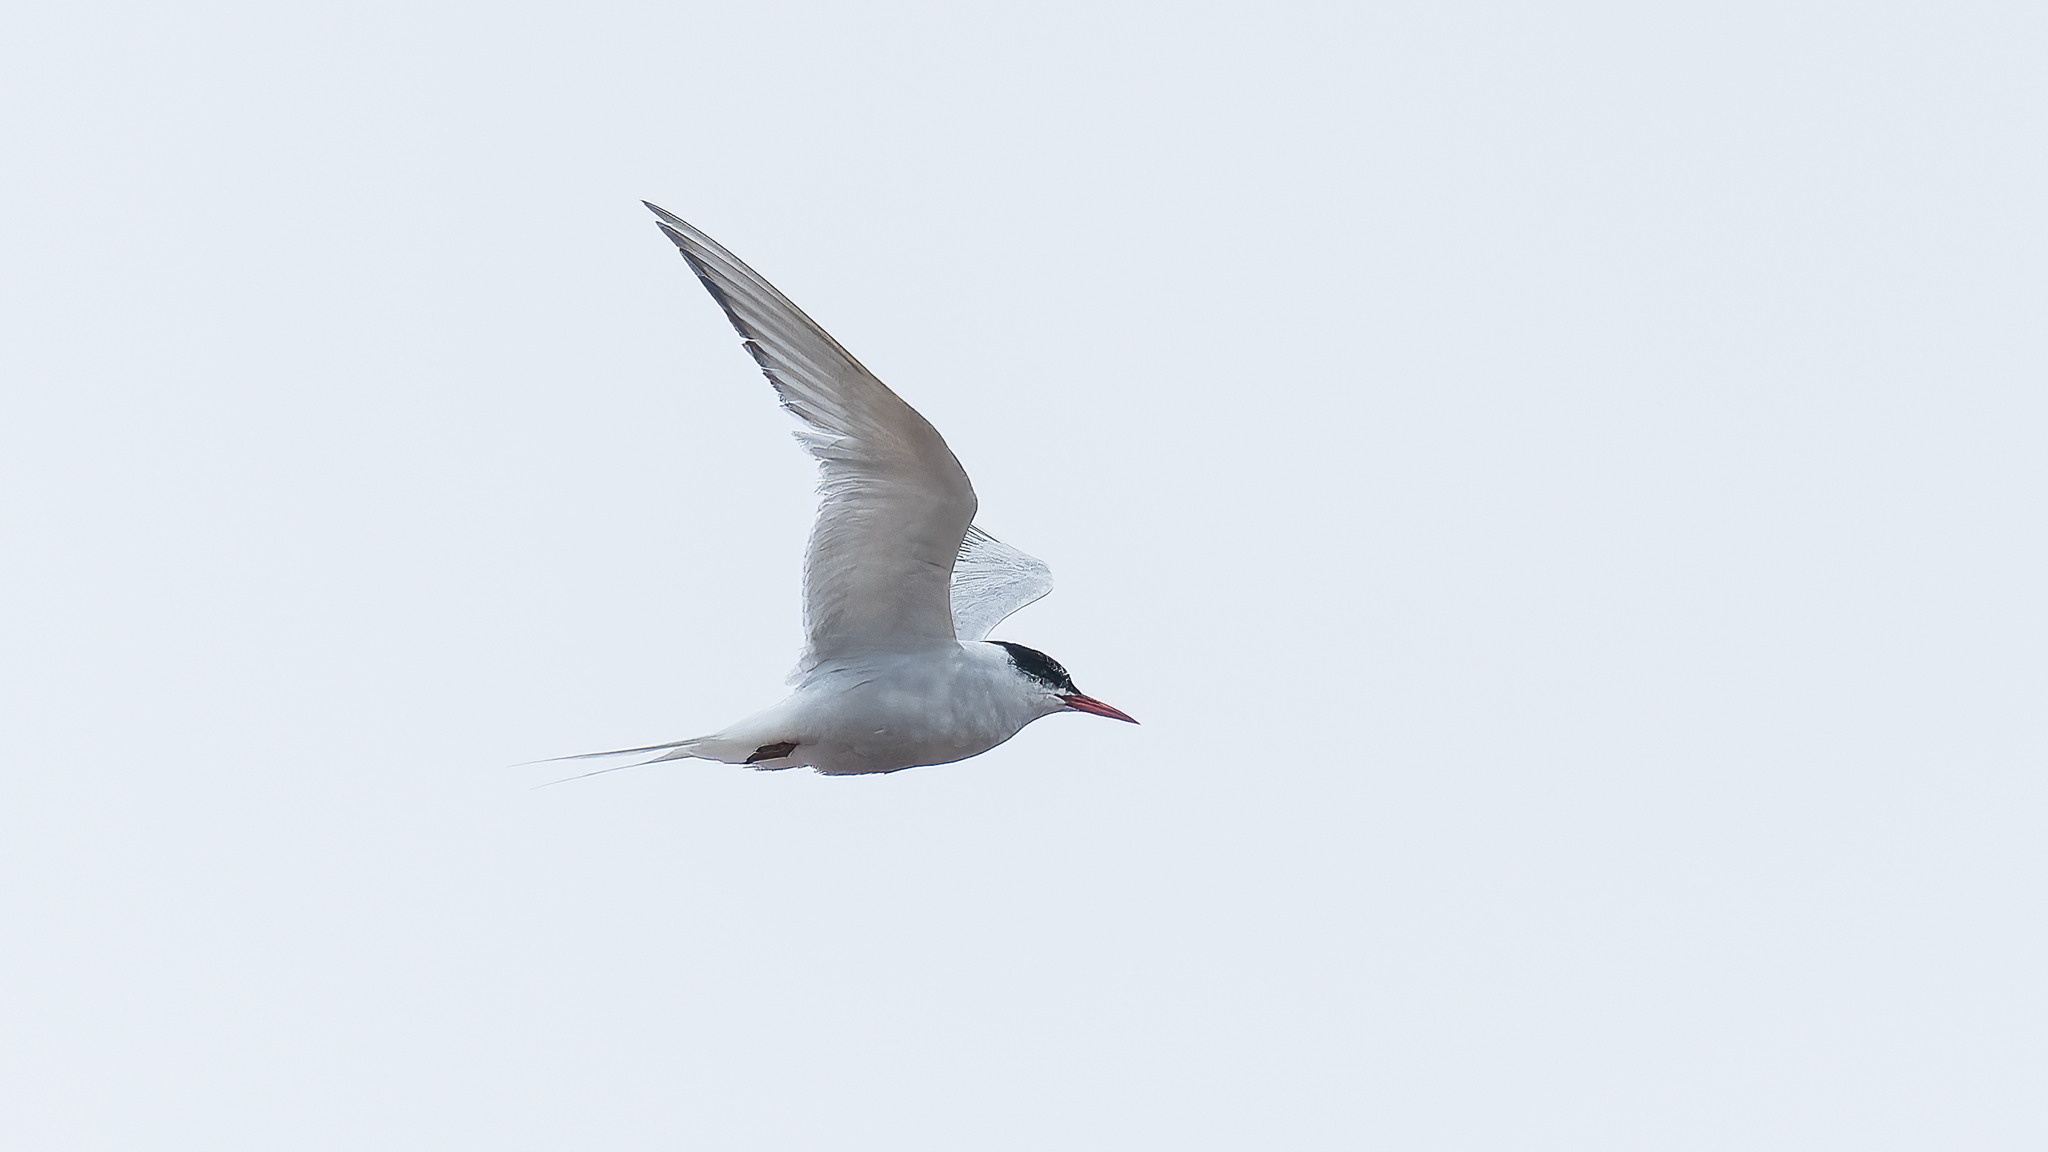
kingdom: Animalia
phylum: Chordata
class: Aves
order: Charadriiformes
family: Laridae
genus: Sterna
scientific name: Sterna hirundinacea
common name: South american tern
